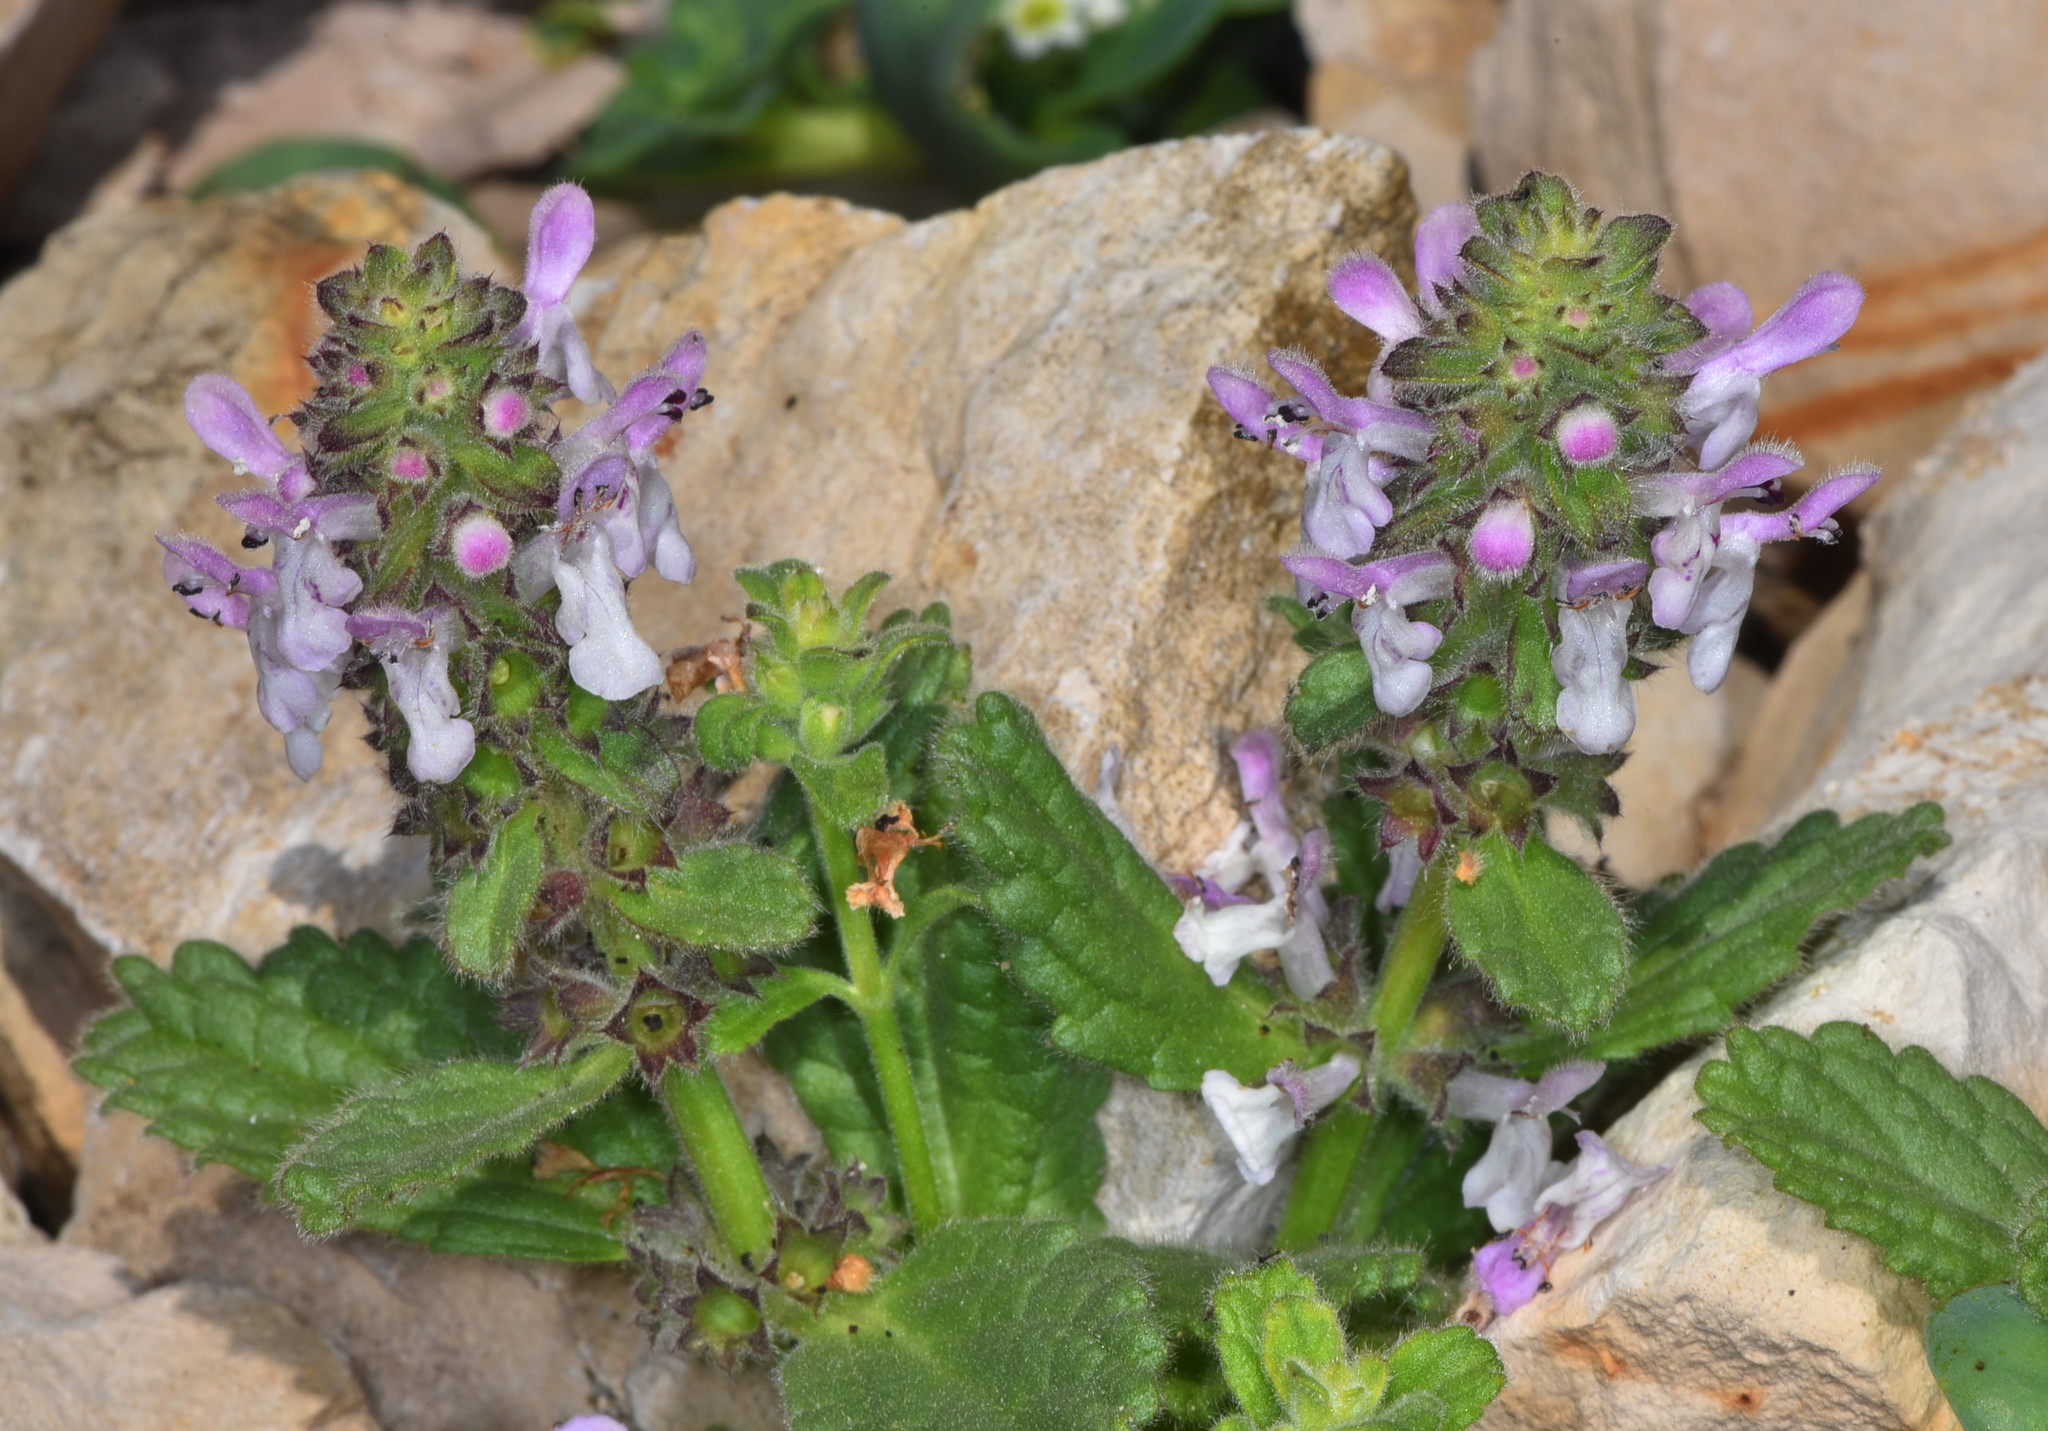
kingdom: Plantae
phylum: Tracheophyta
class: Magnoliopsida
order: Lamiales
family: Lamiaceae
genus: Stachys
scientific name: Stachys ajugoides
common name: Hedge-nettle
